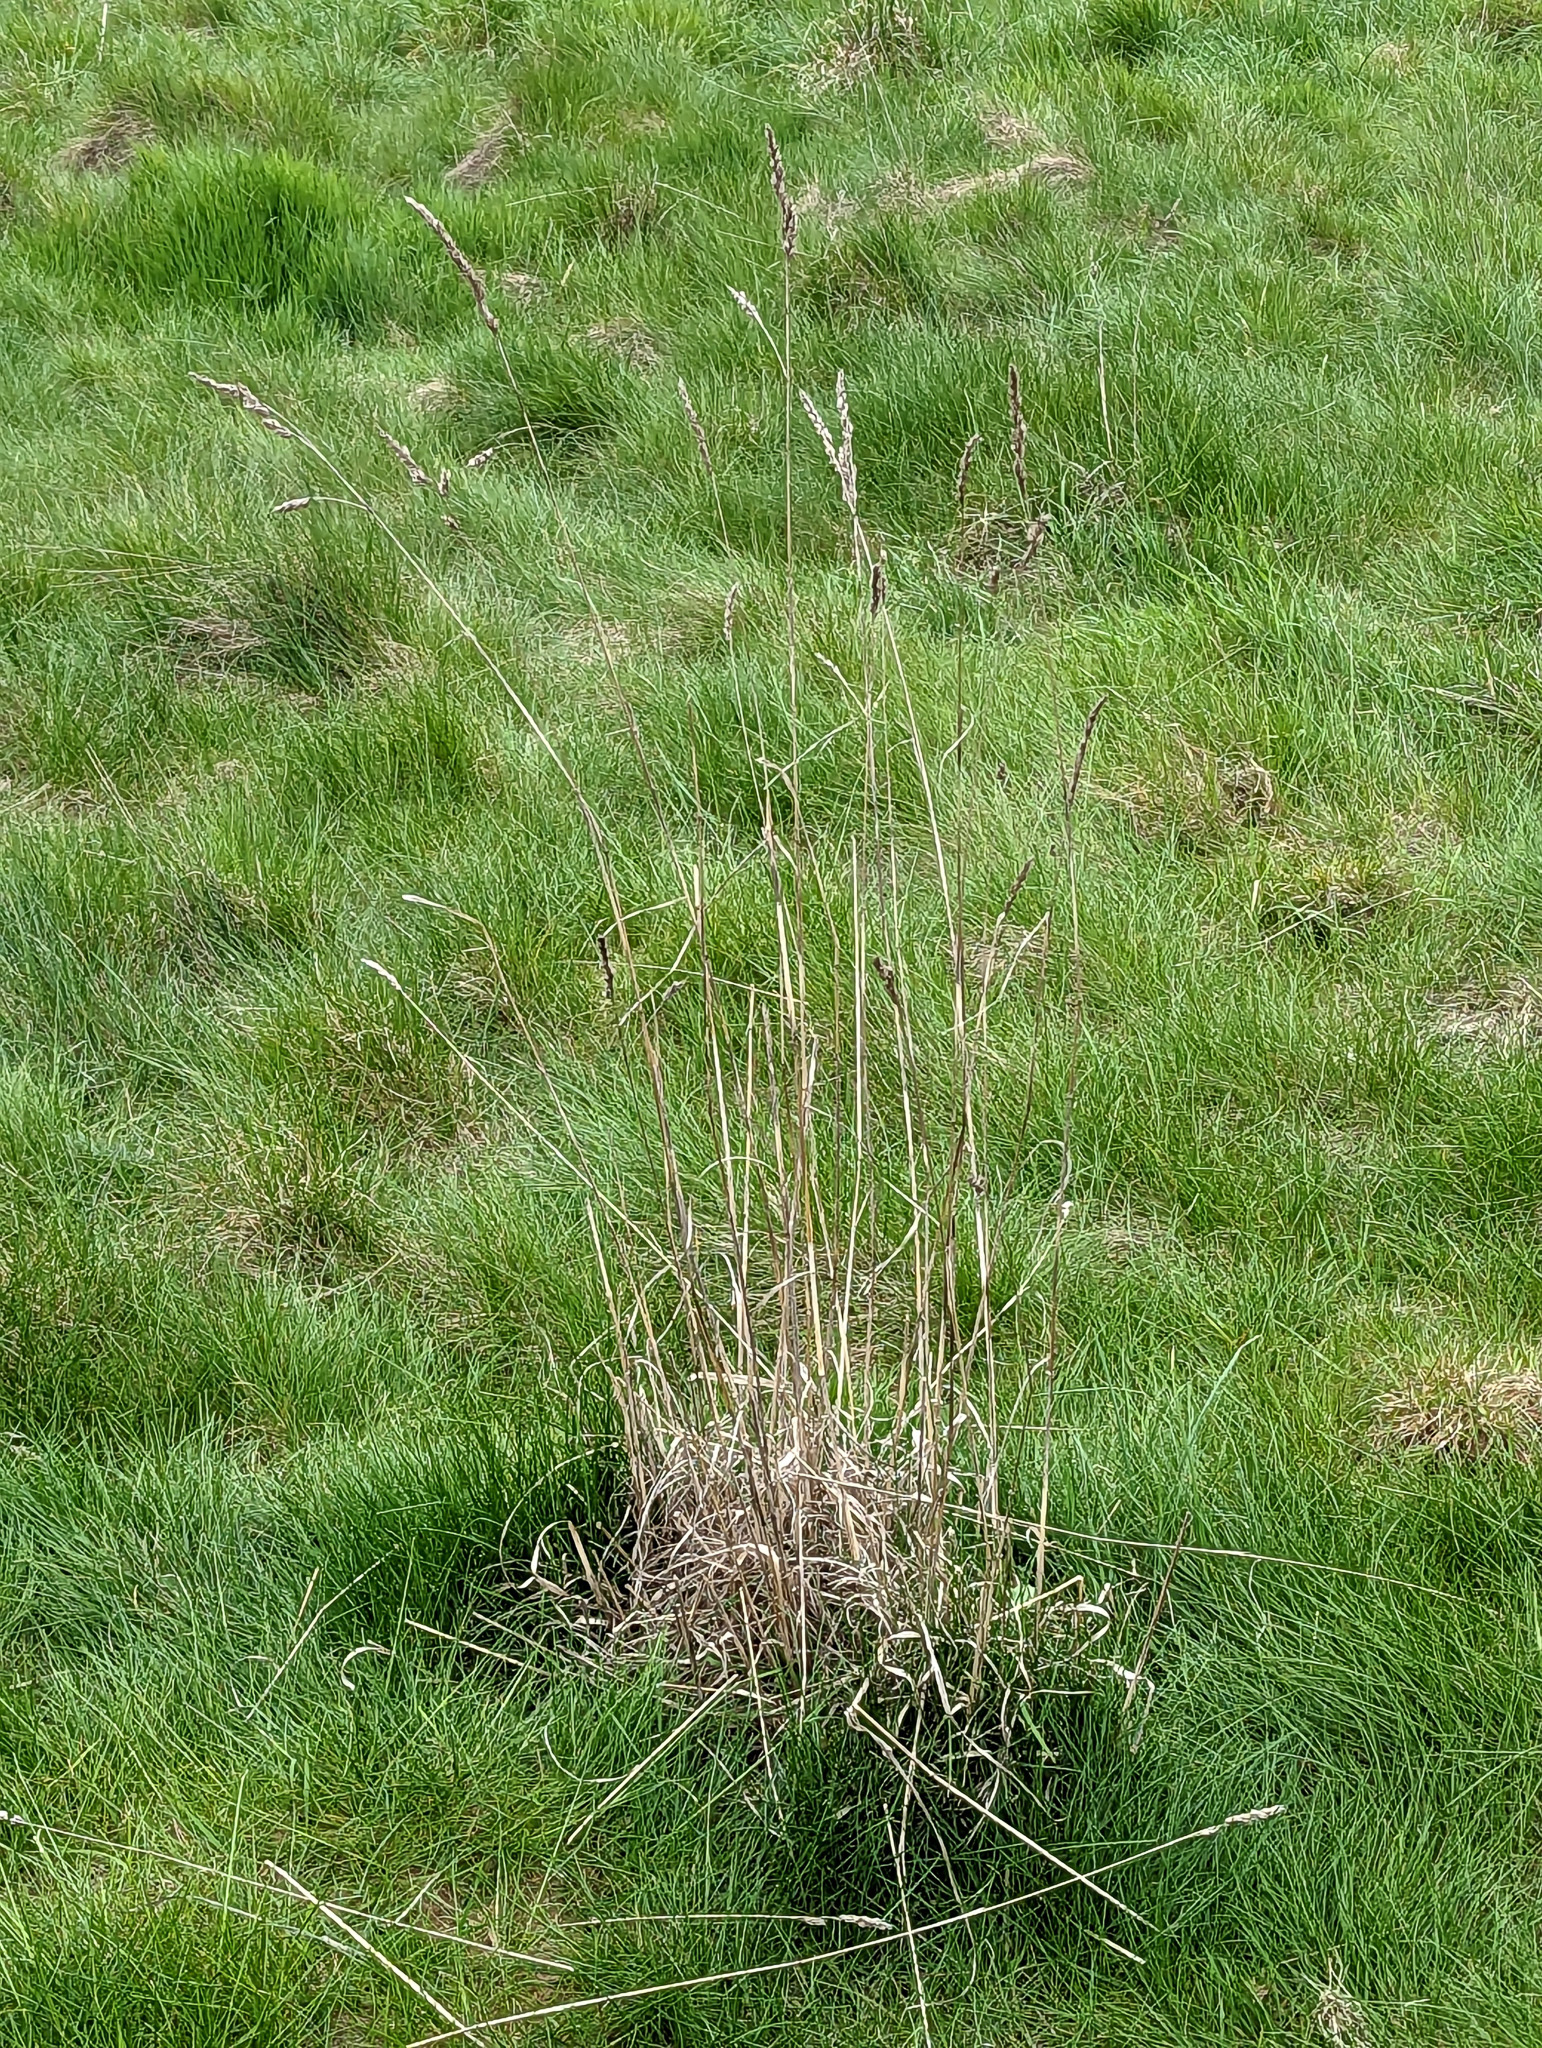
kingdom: Plantae
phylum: Tracheophyta
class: Liliopsida
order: Poales
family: Poaceae
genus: Dactylis
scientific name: Dactylis glomerata
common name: Orchardgrass
